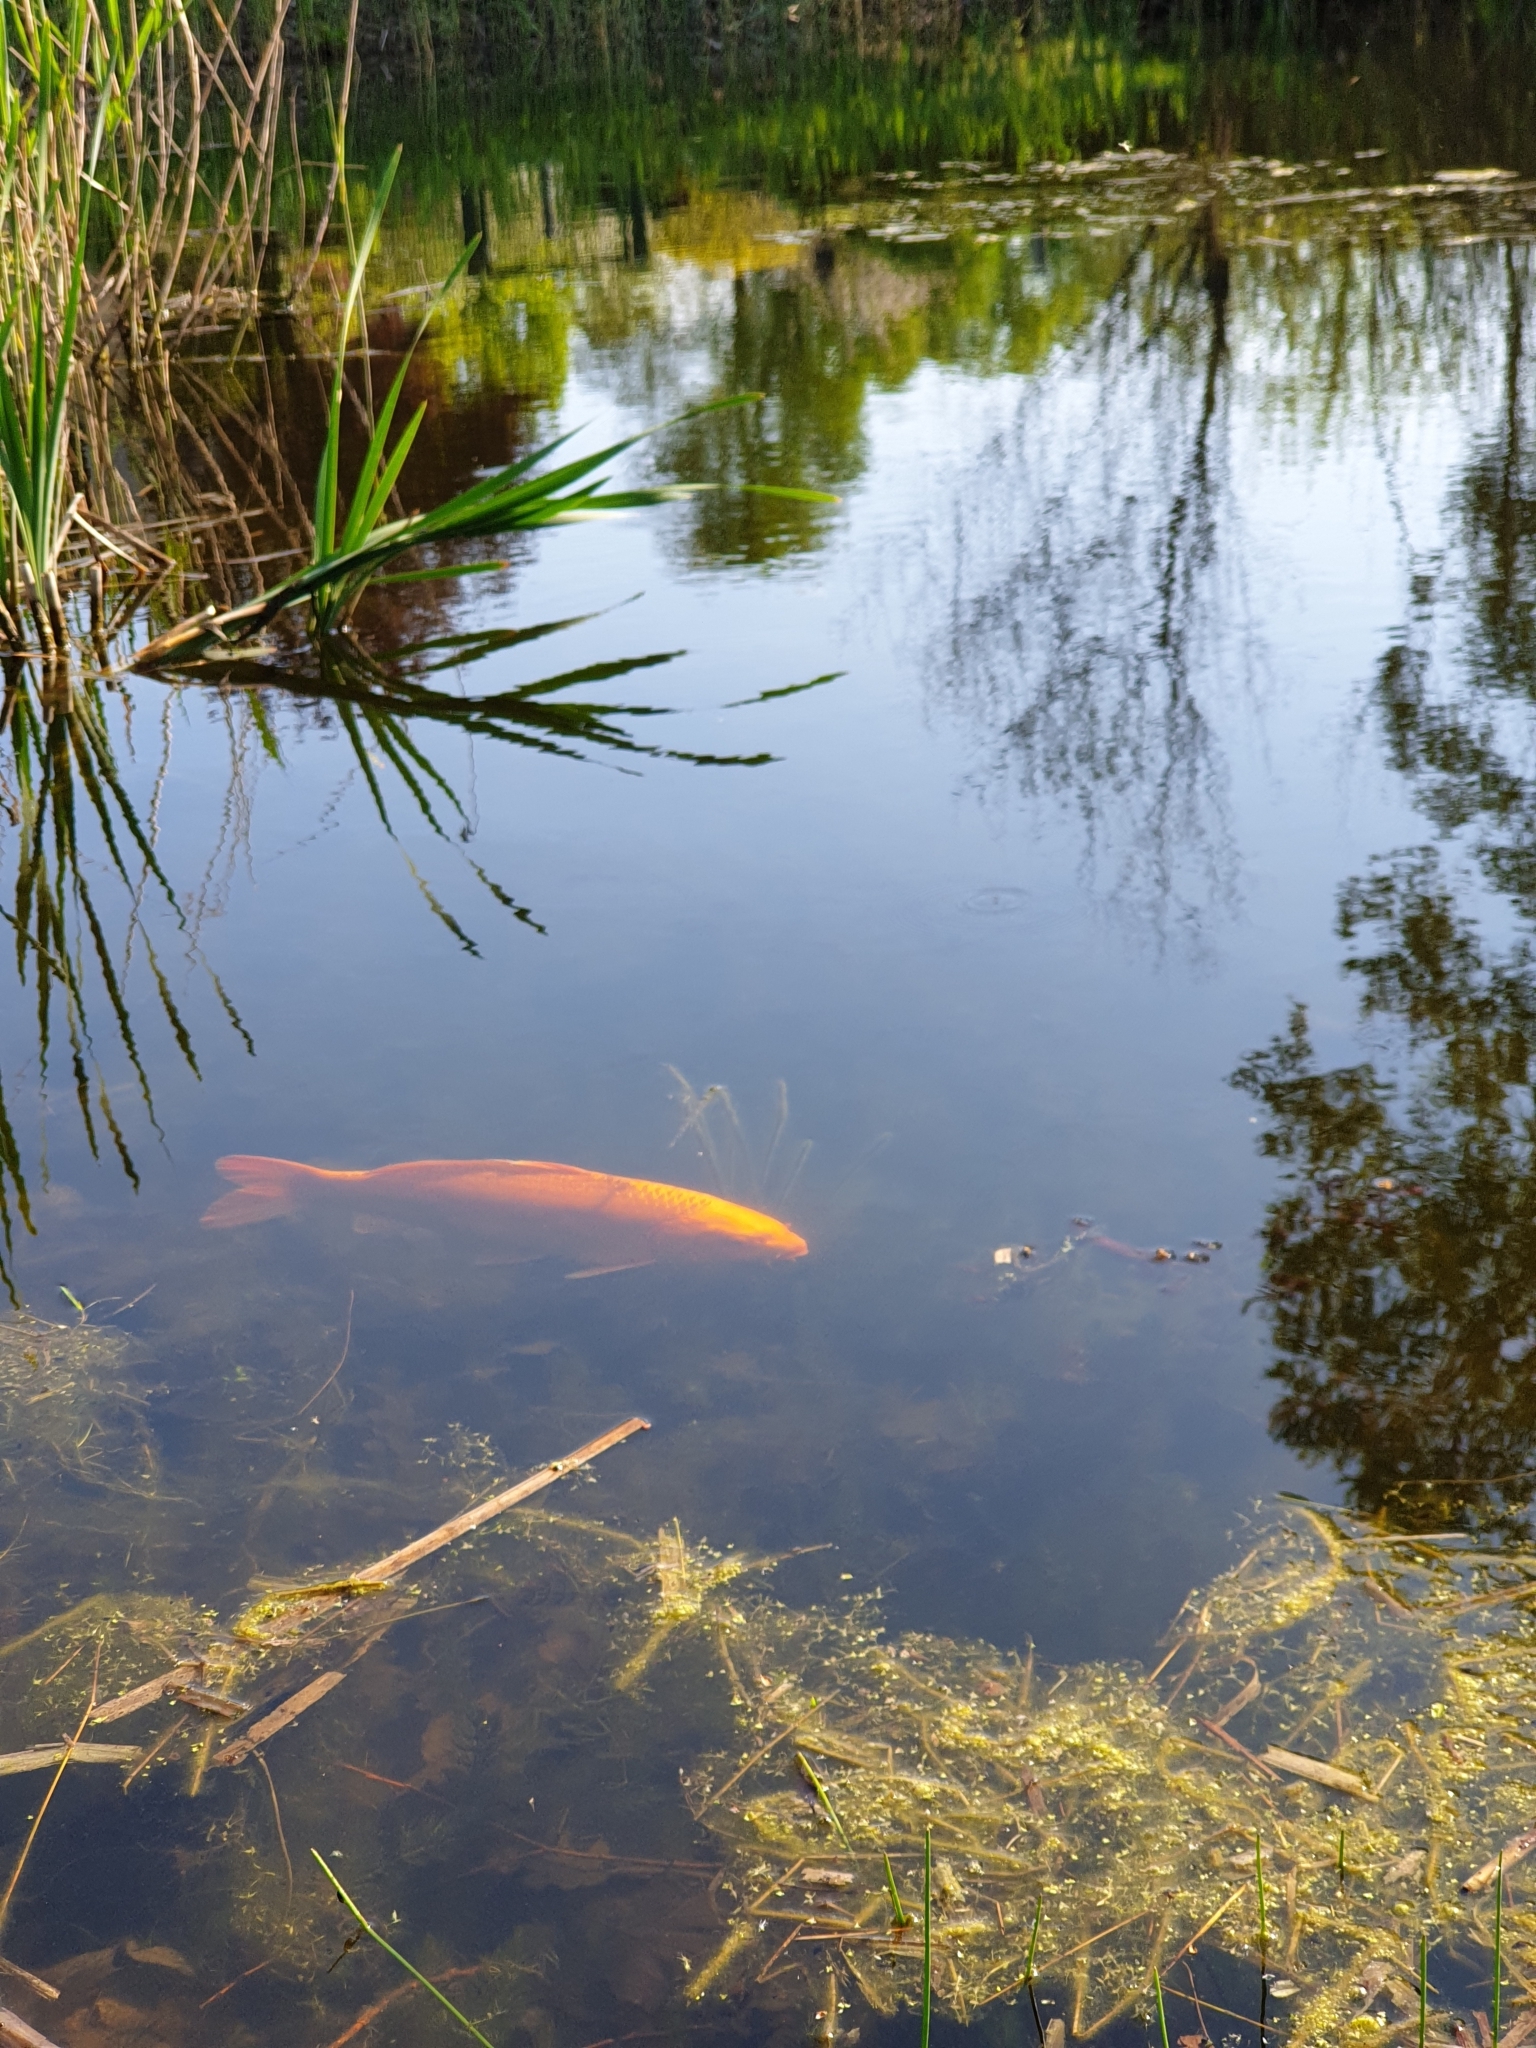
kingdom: Animalia
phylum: Chordata
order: Cypriniformes
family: Cyprinidae
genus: Cyprinus
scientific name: Cyprinus rubrofuscus
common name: Koi
